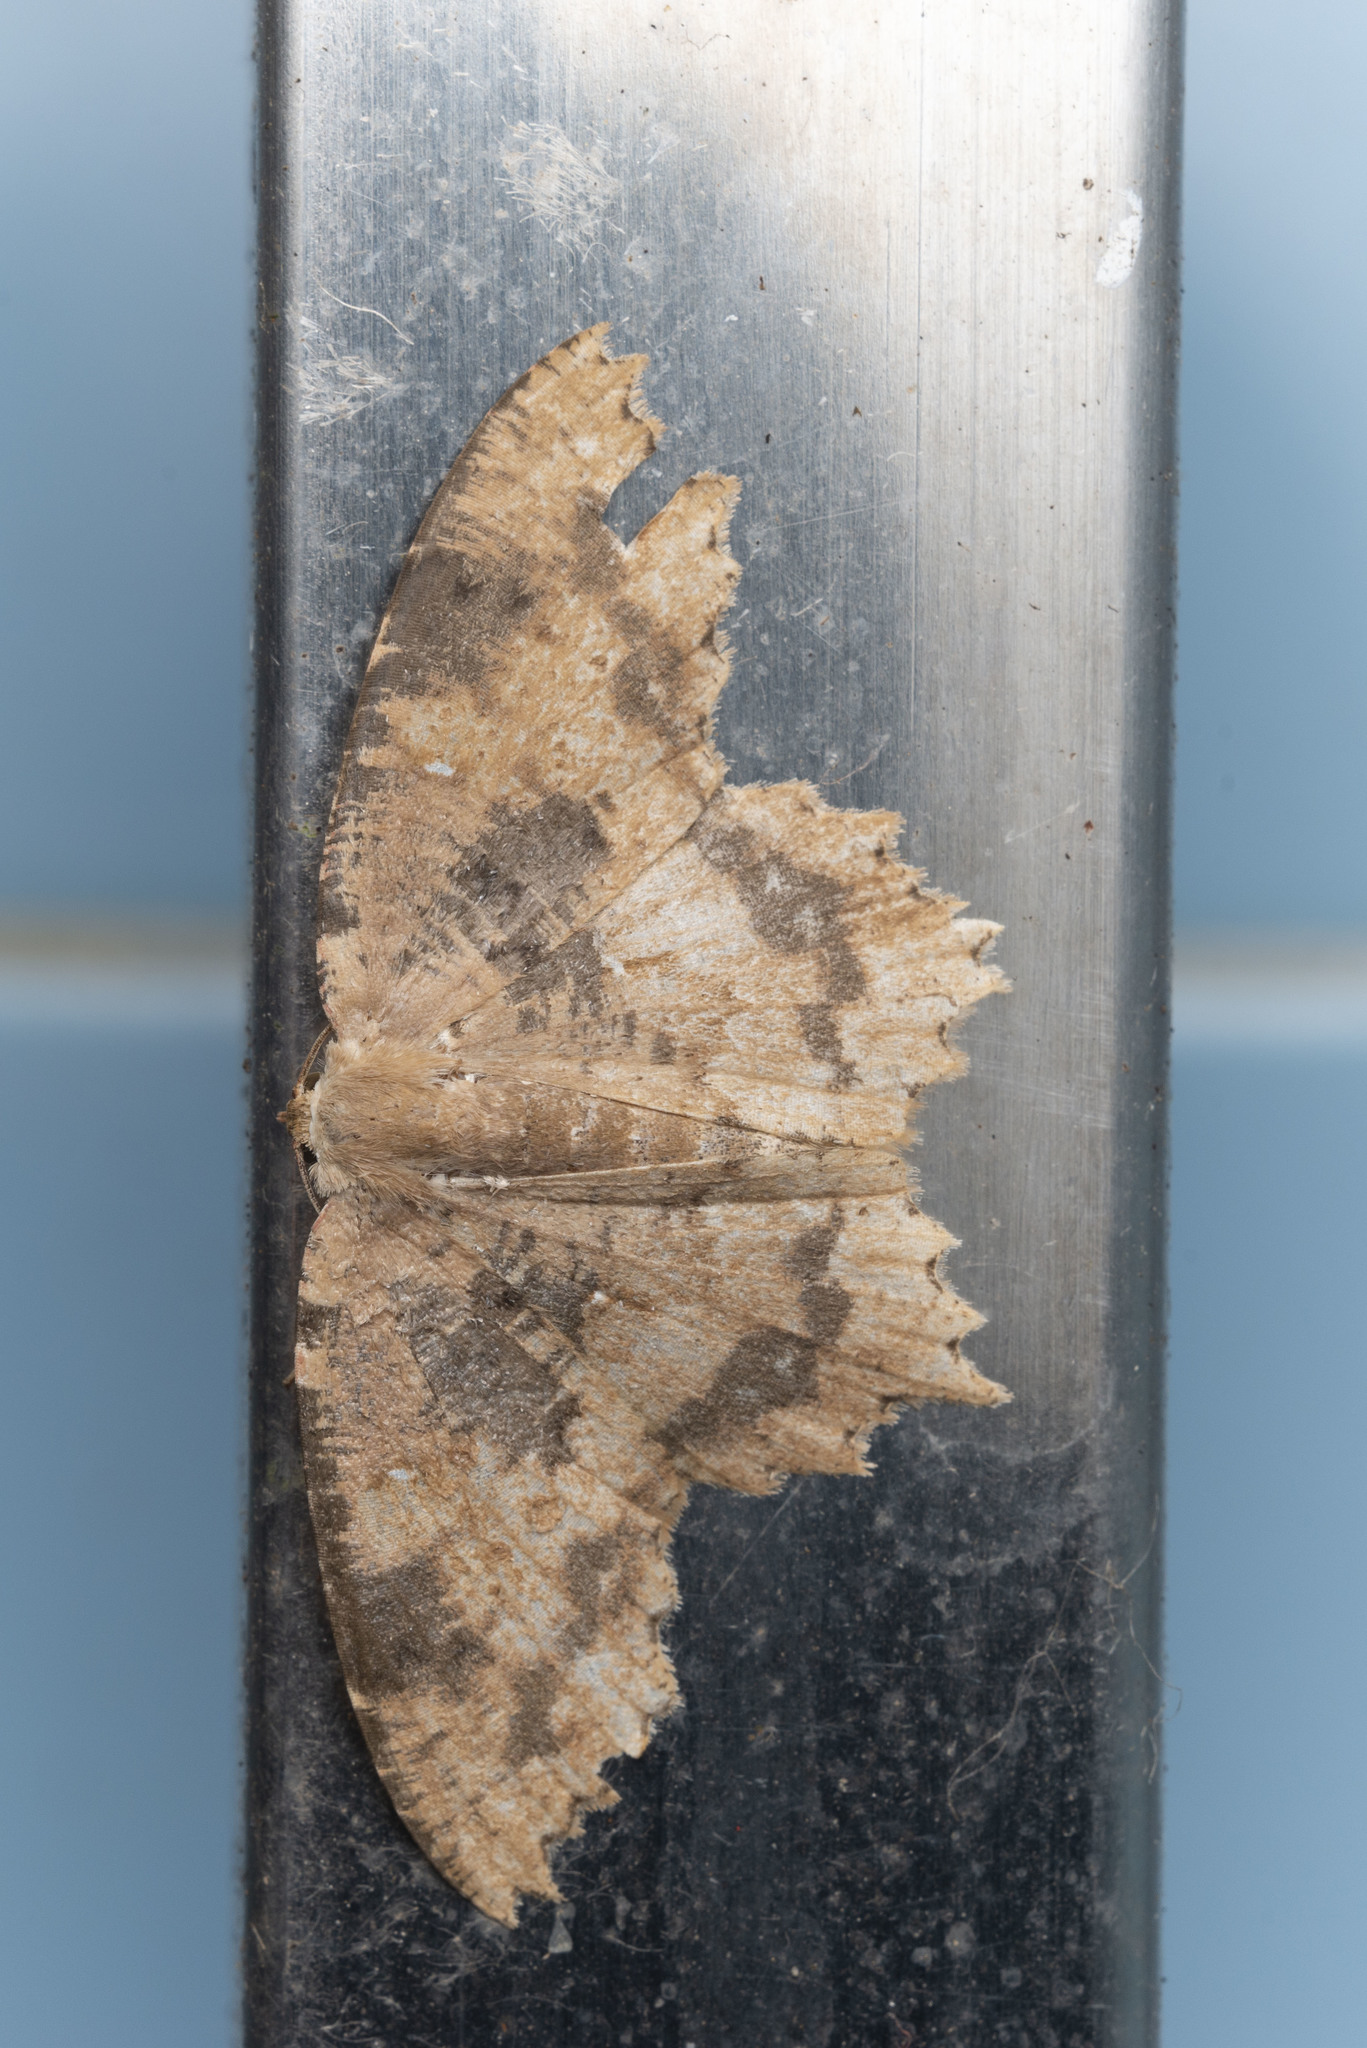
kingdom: Animalia
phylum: Arthropoda
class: Insecta
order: Lepidoptera
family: Geometridae
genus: Paramaxates
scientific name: Paramaxates vagata
